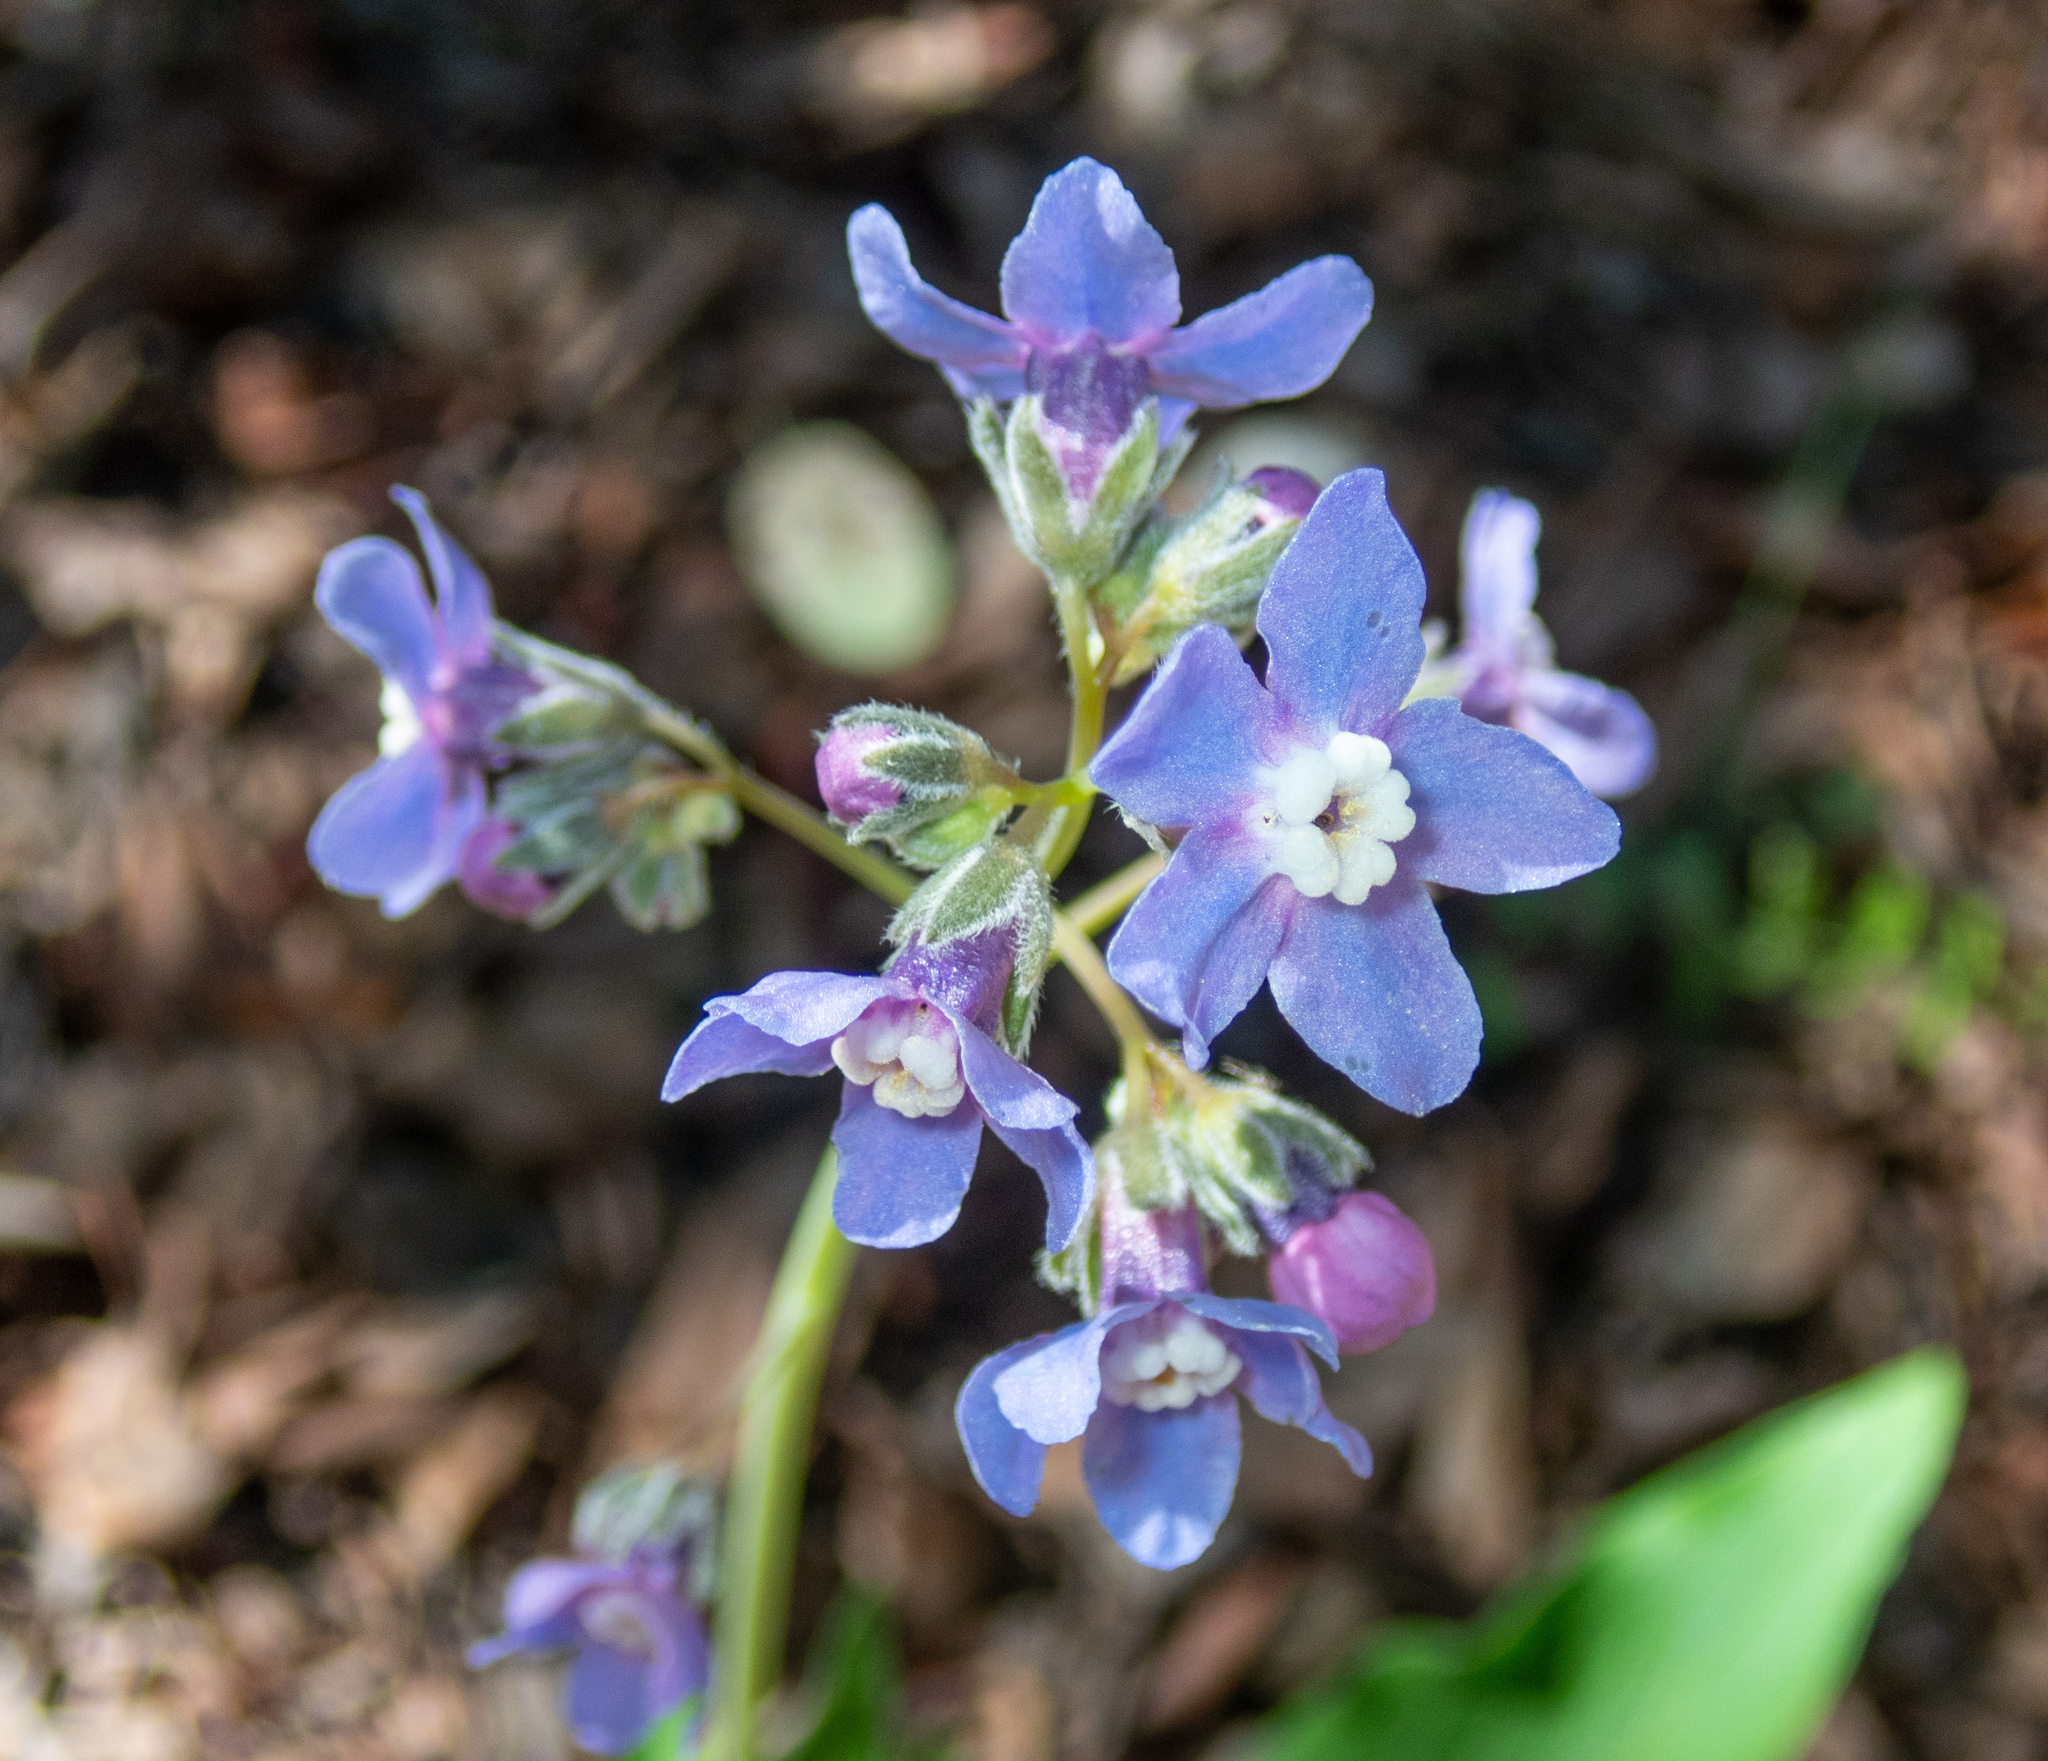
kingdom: Plantae
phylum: Tracheophyta
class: Magnoliopsida
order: Boraginales
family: Boraginaceae
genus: Adelinia
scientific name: Adelinia grande
